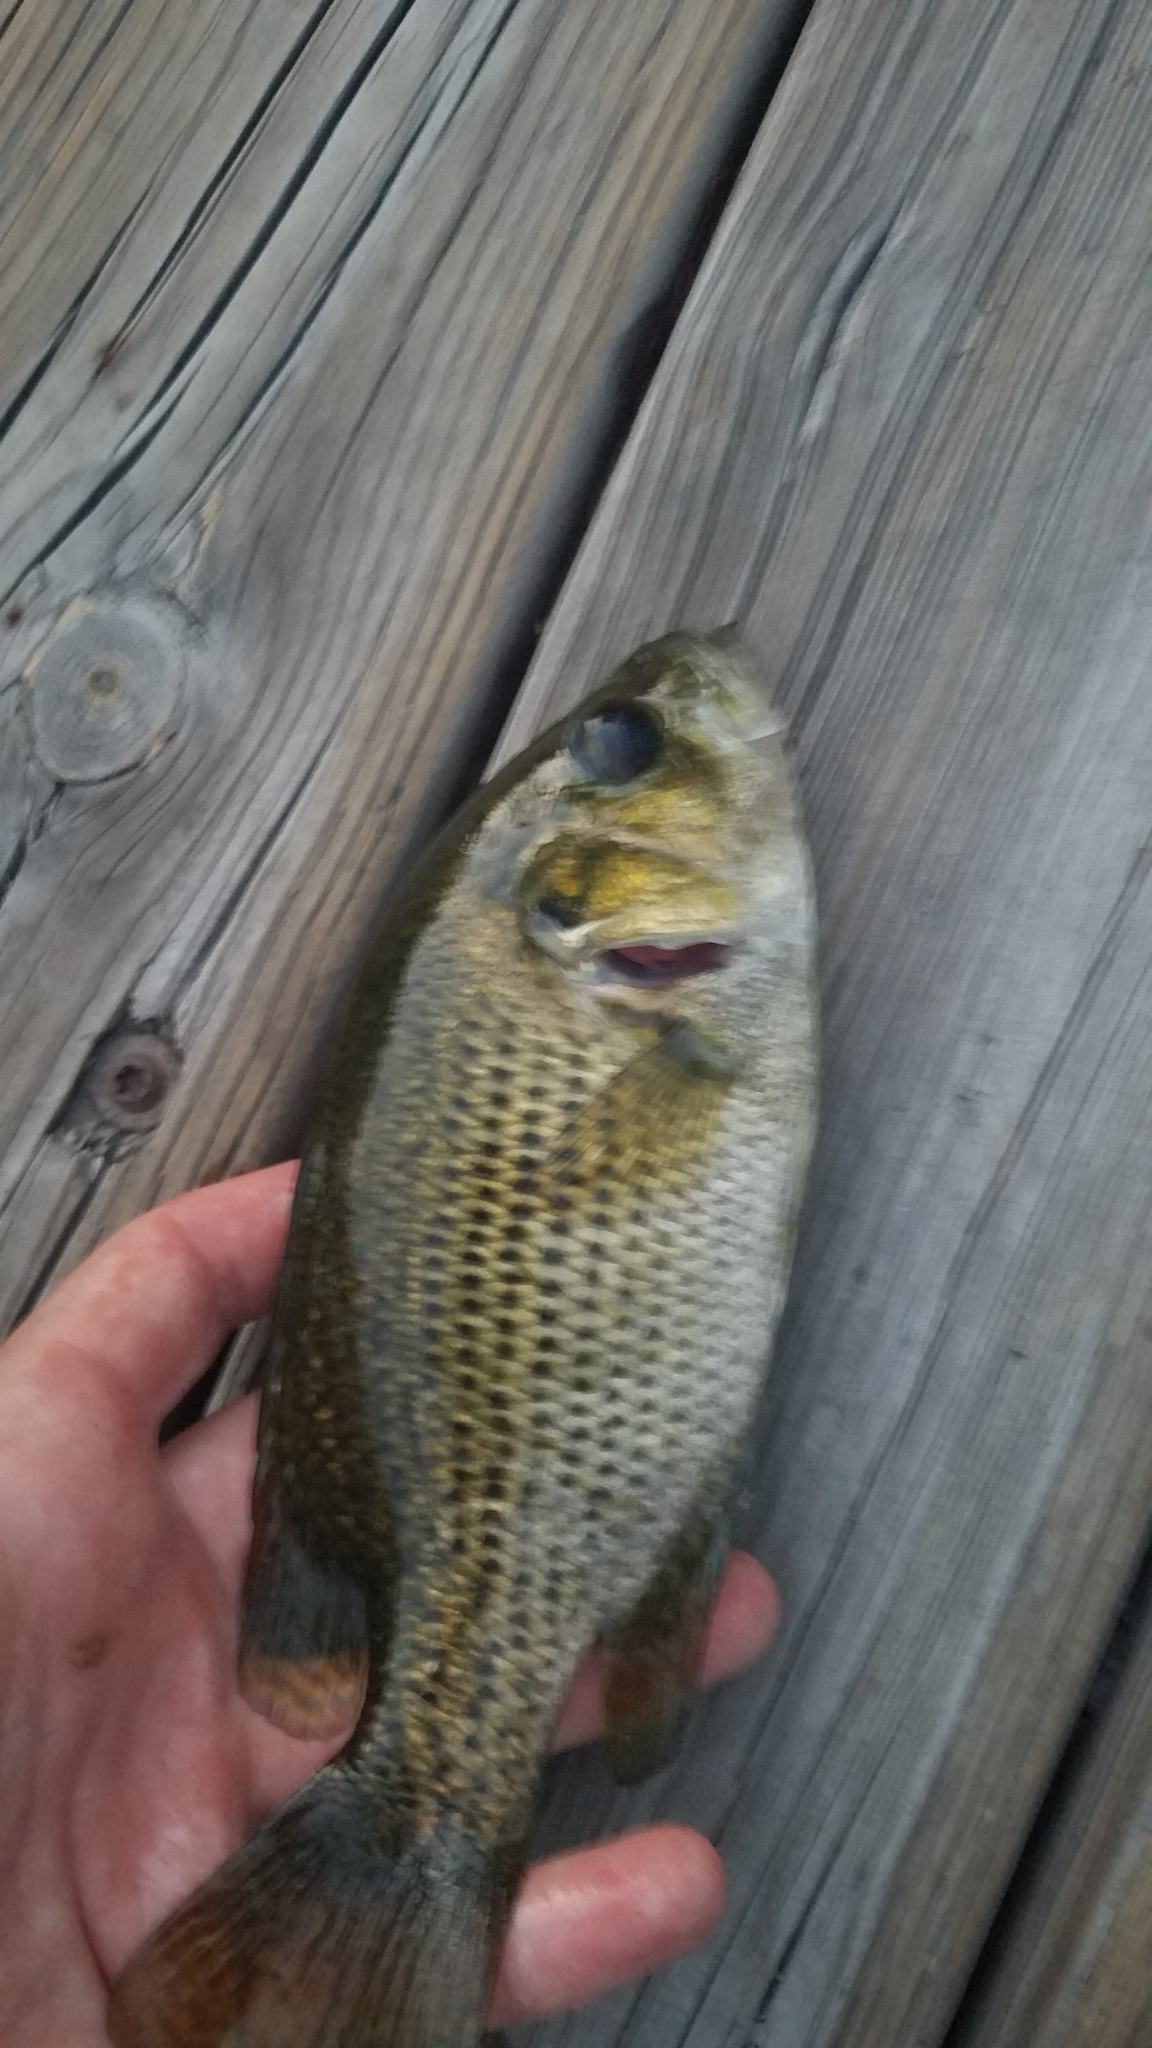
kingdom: Animalia
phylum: Chordata
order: Perciformes
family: Centrarchidae
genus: Ambloplites
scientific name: Ambloplites rupestris
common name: Rock bass
